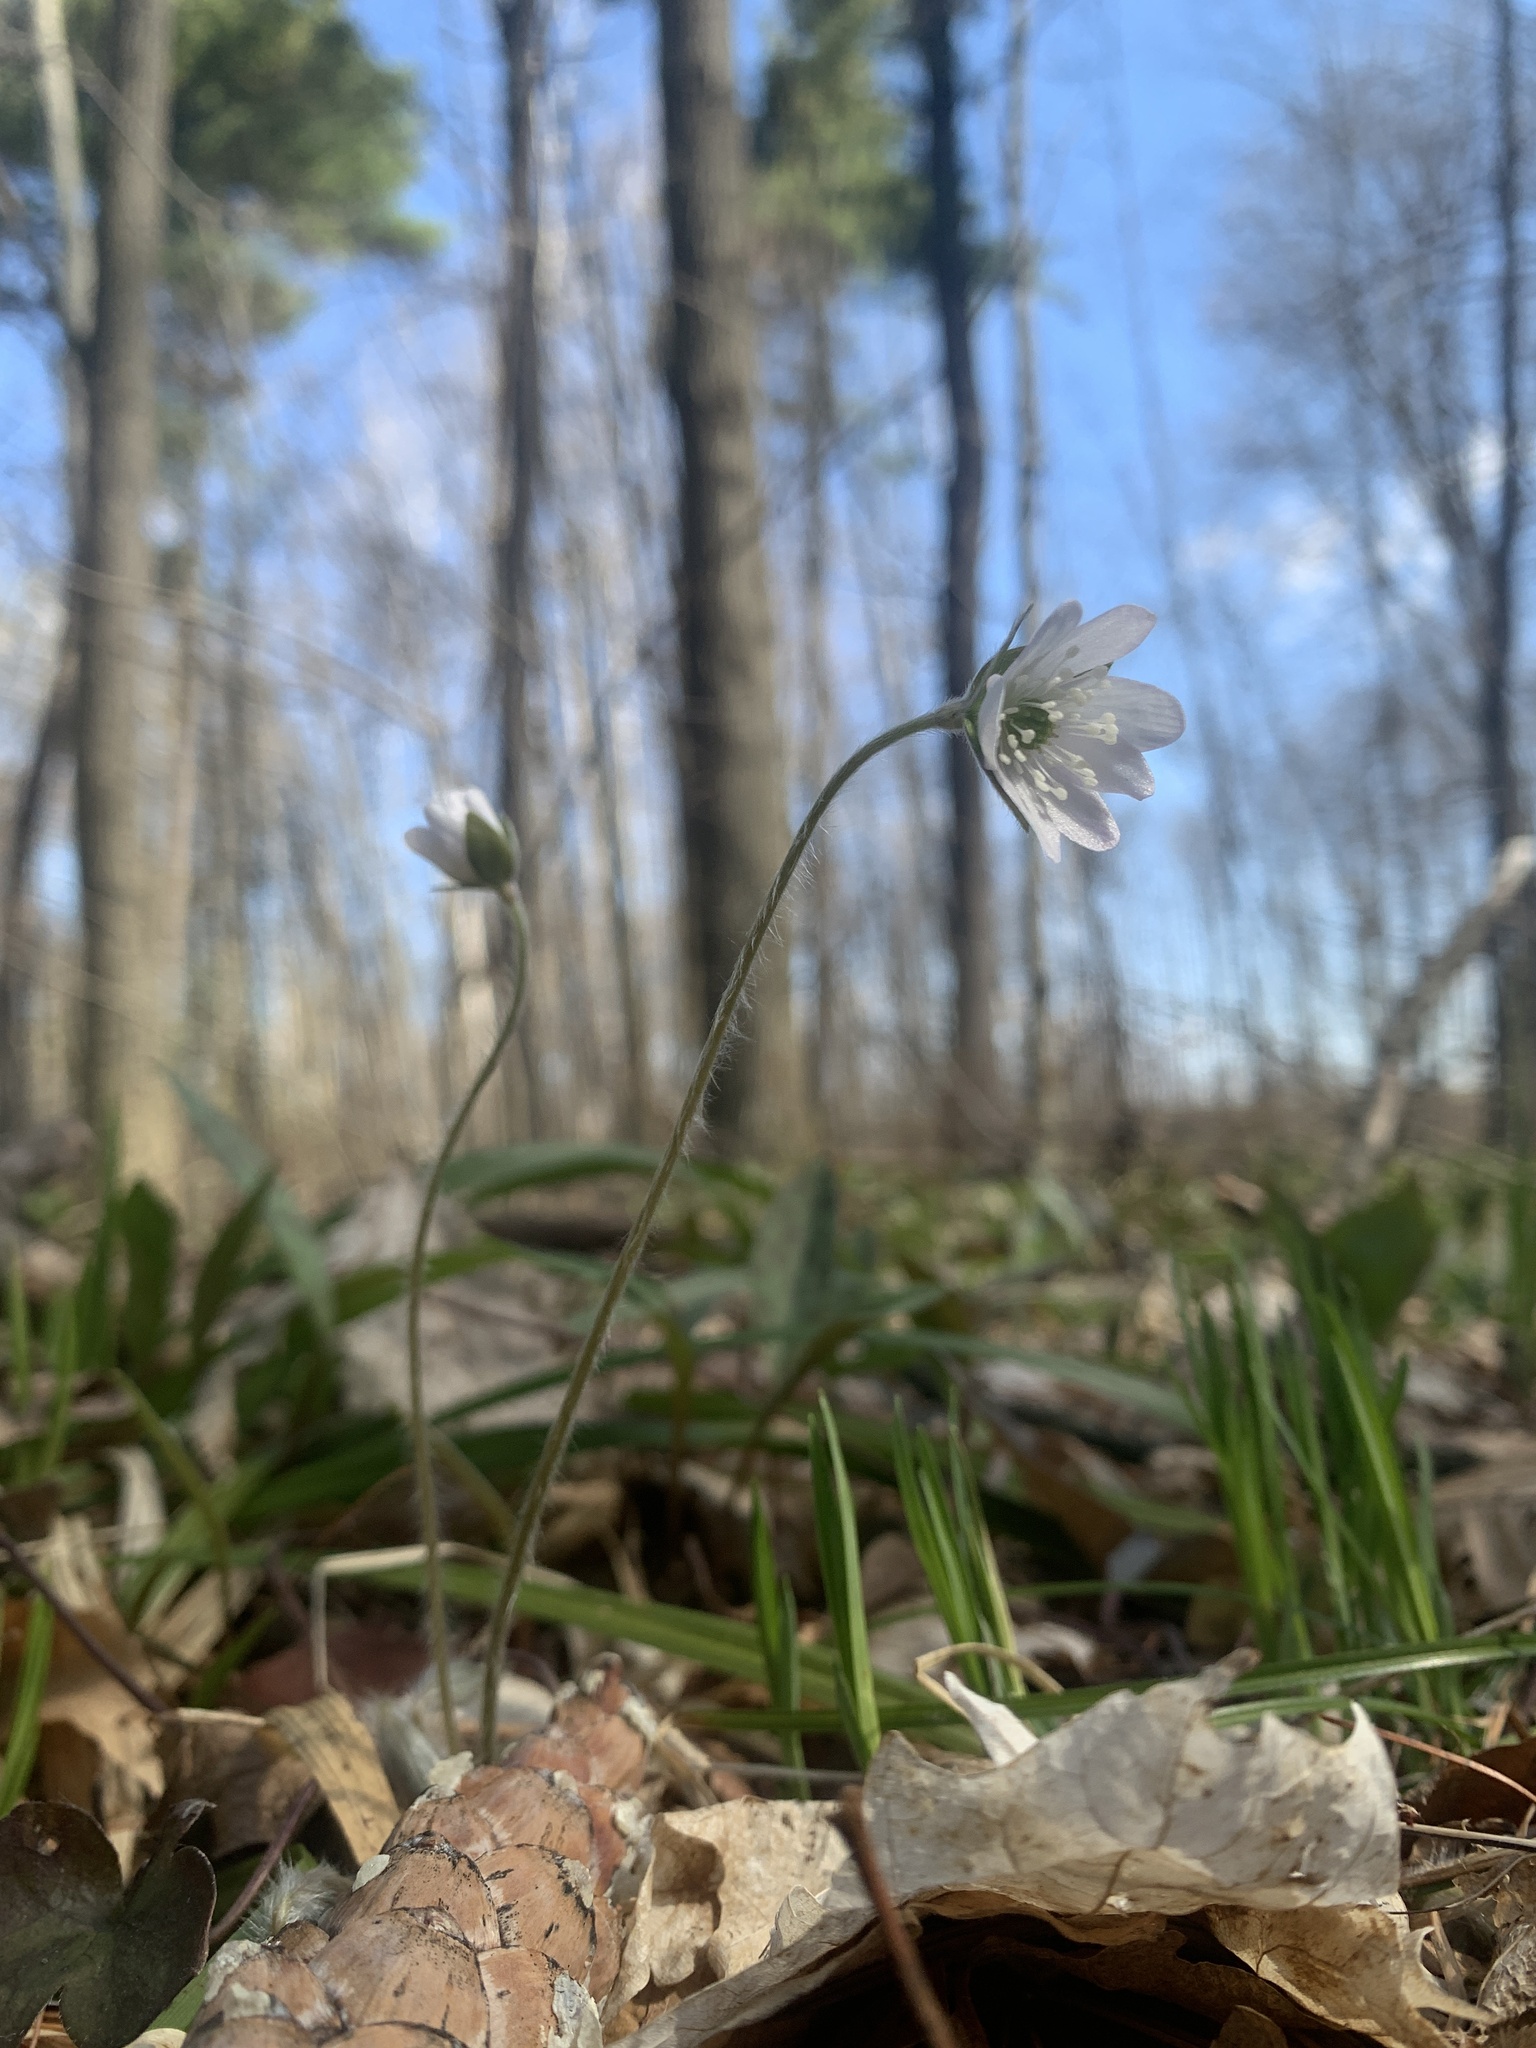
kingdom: Plantae
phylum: Tracheophyta
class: Magnoliopsida
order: Ranunculales
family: Ranunculaceae
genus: Hepatica
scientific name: Hepatica acutiloba
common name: Sharp-lobed hepatica
